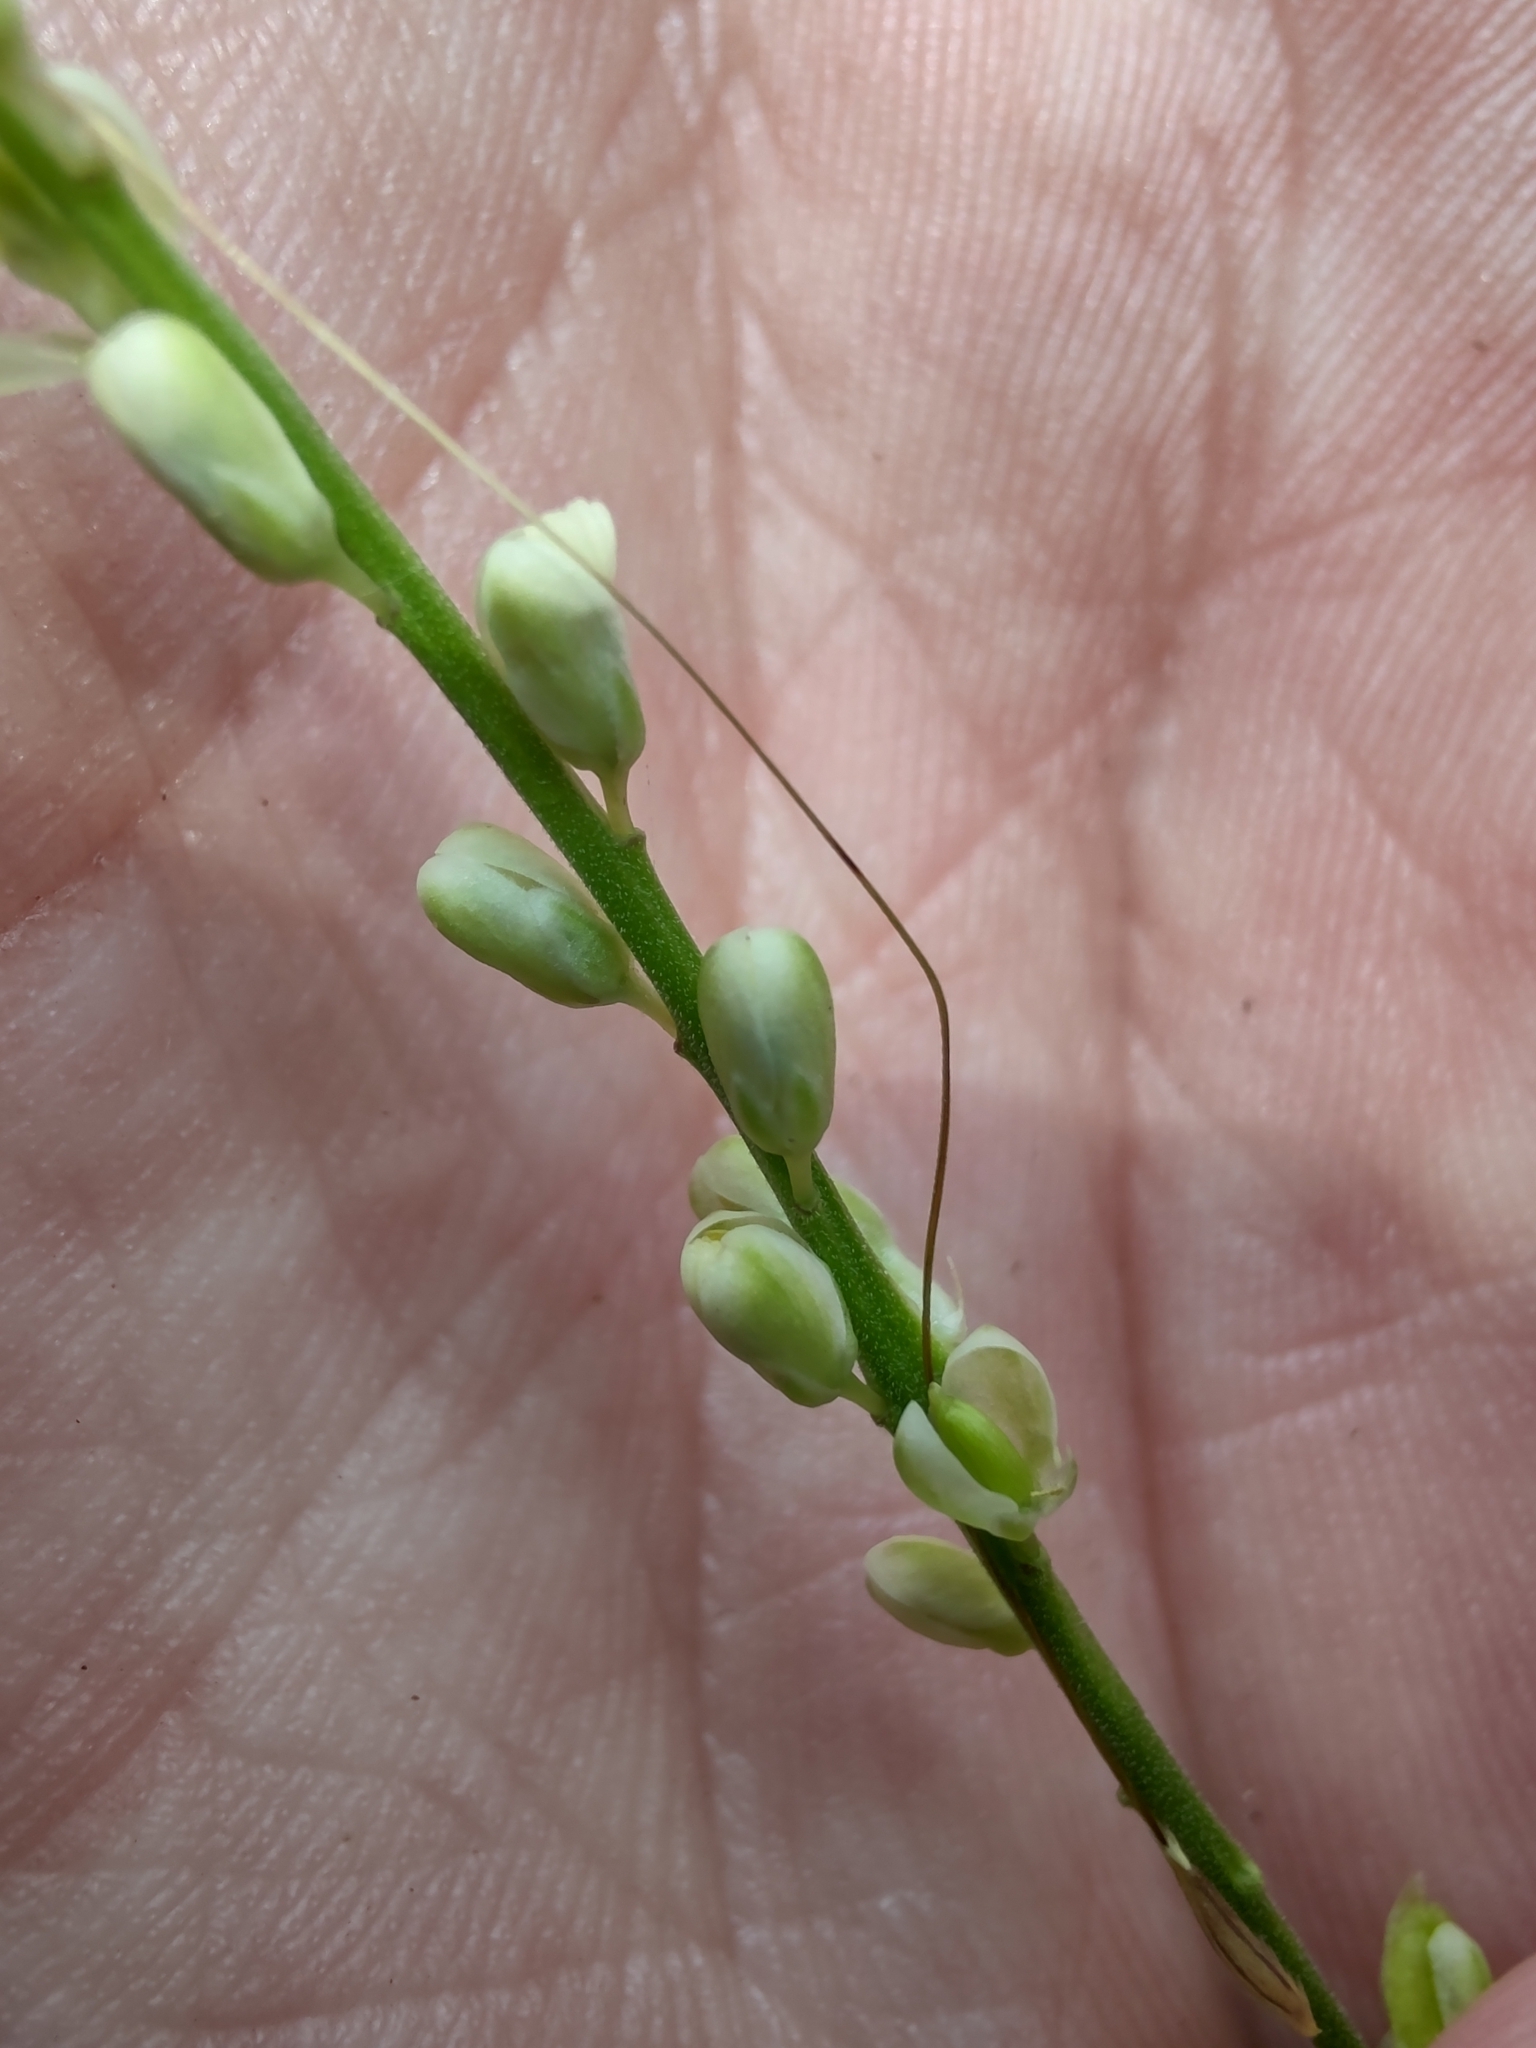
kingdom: Plantae
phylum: Tracheophyta
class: Magnoliopsida
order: Fabales
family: Polygalaceae
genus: Polygala
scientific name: Polygala duarteana
